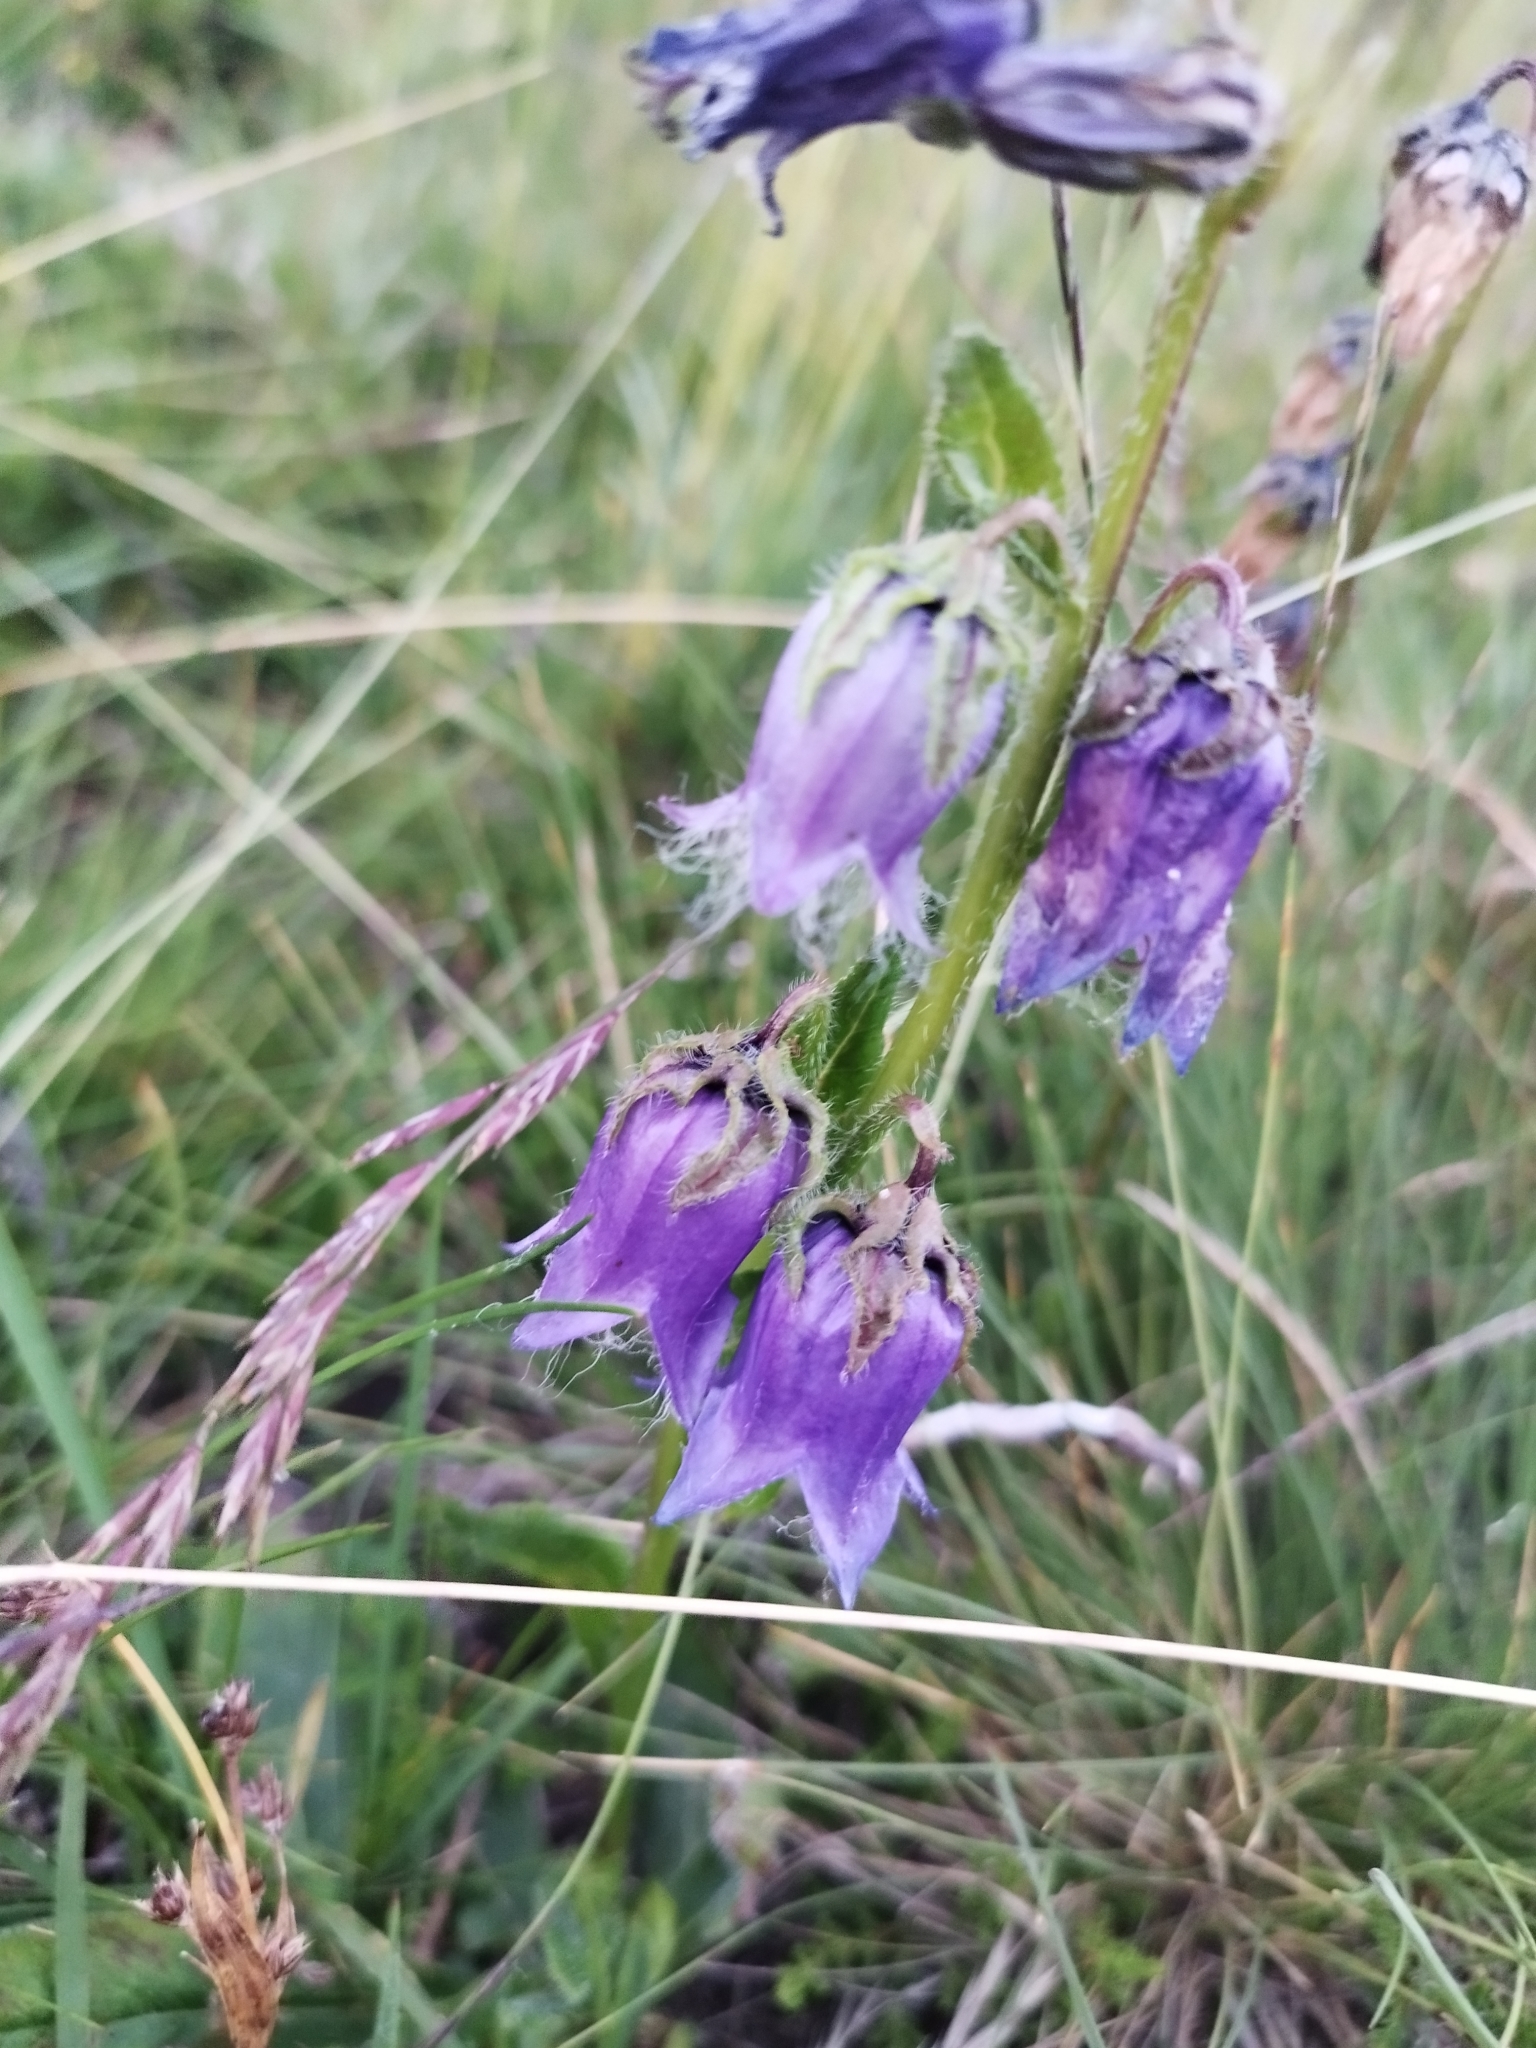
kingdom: Plantae
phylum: Tracheophyta
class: Magnoliopsida
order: Asterales
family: Campanulaceae
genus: Campanula
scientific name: Campanula barbata
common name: Bearded bellflower
